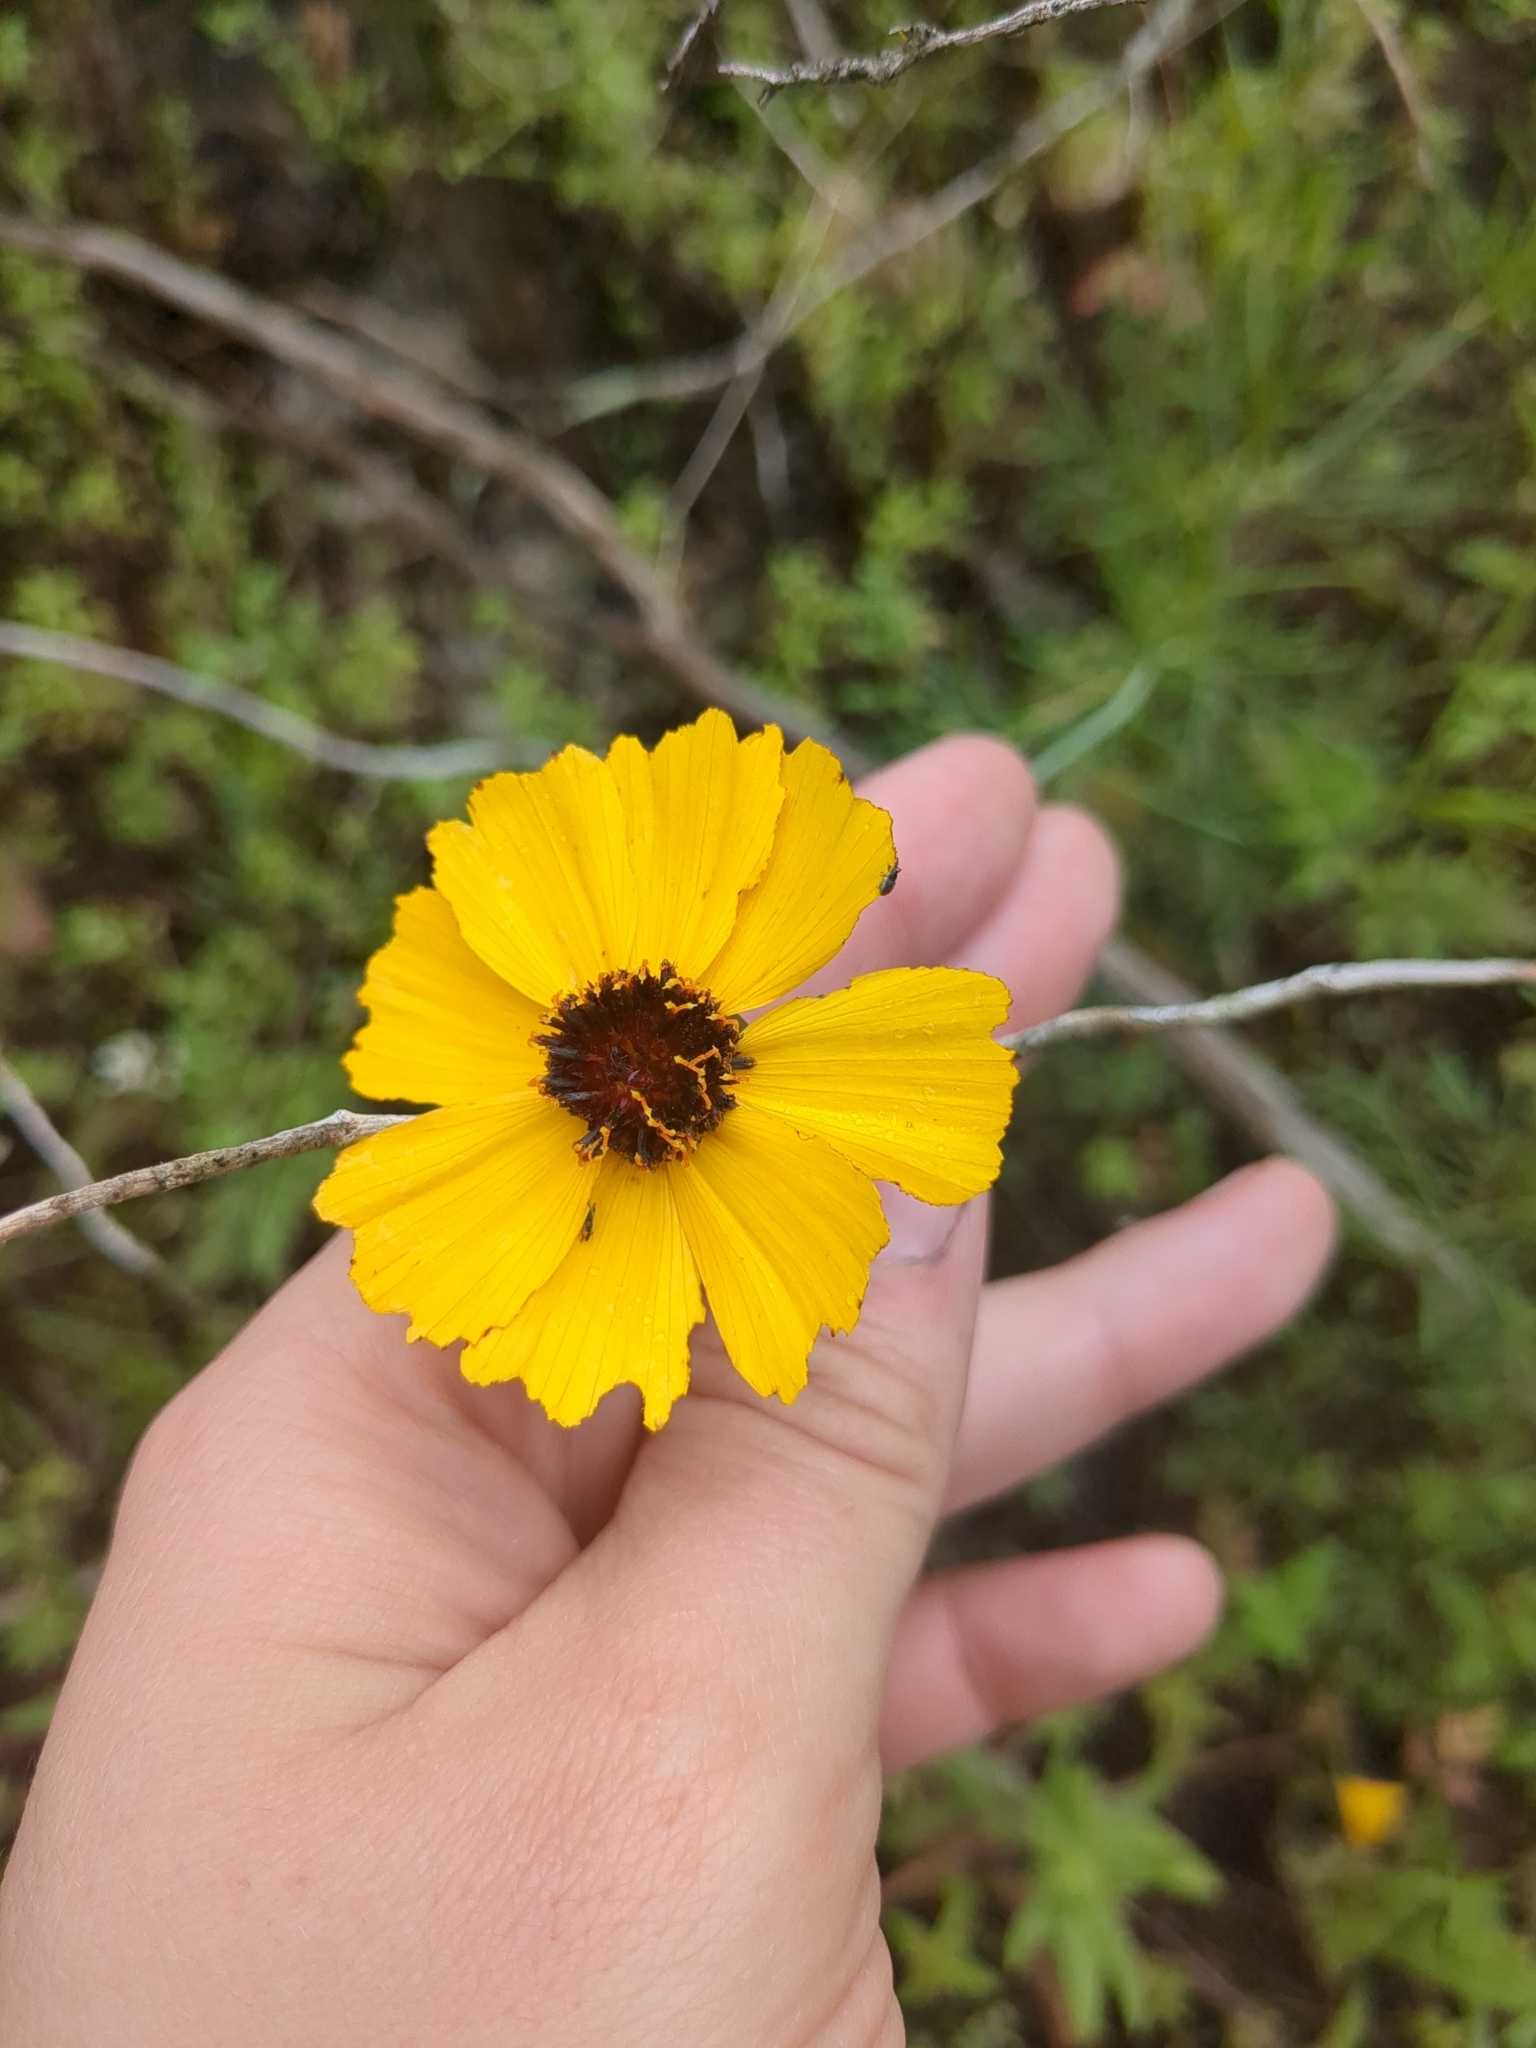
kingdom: Plantae
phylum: Tracheophyta
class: Magnoliopsida
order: Asterales
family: Asteraceae
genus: Thelesperma
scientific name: Thelesperma filifolium
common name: Stiff greenthread
